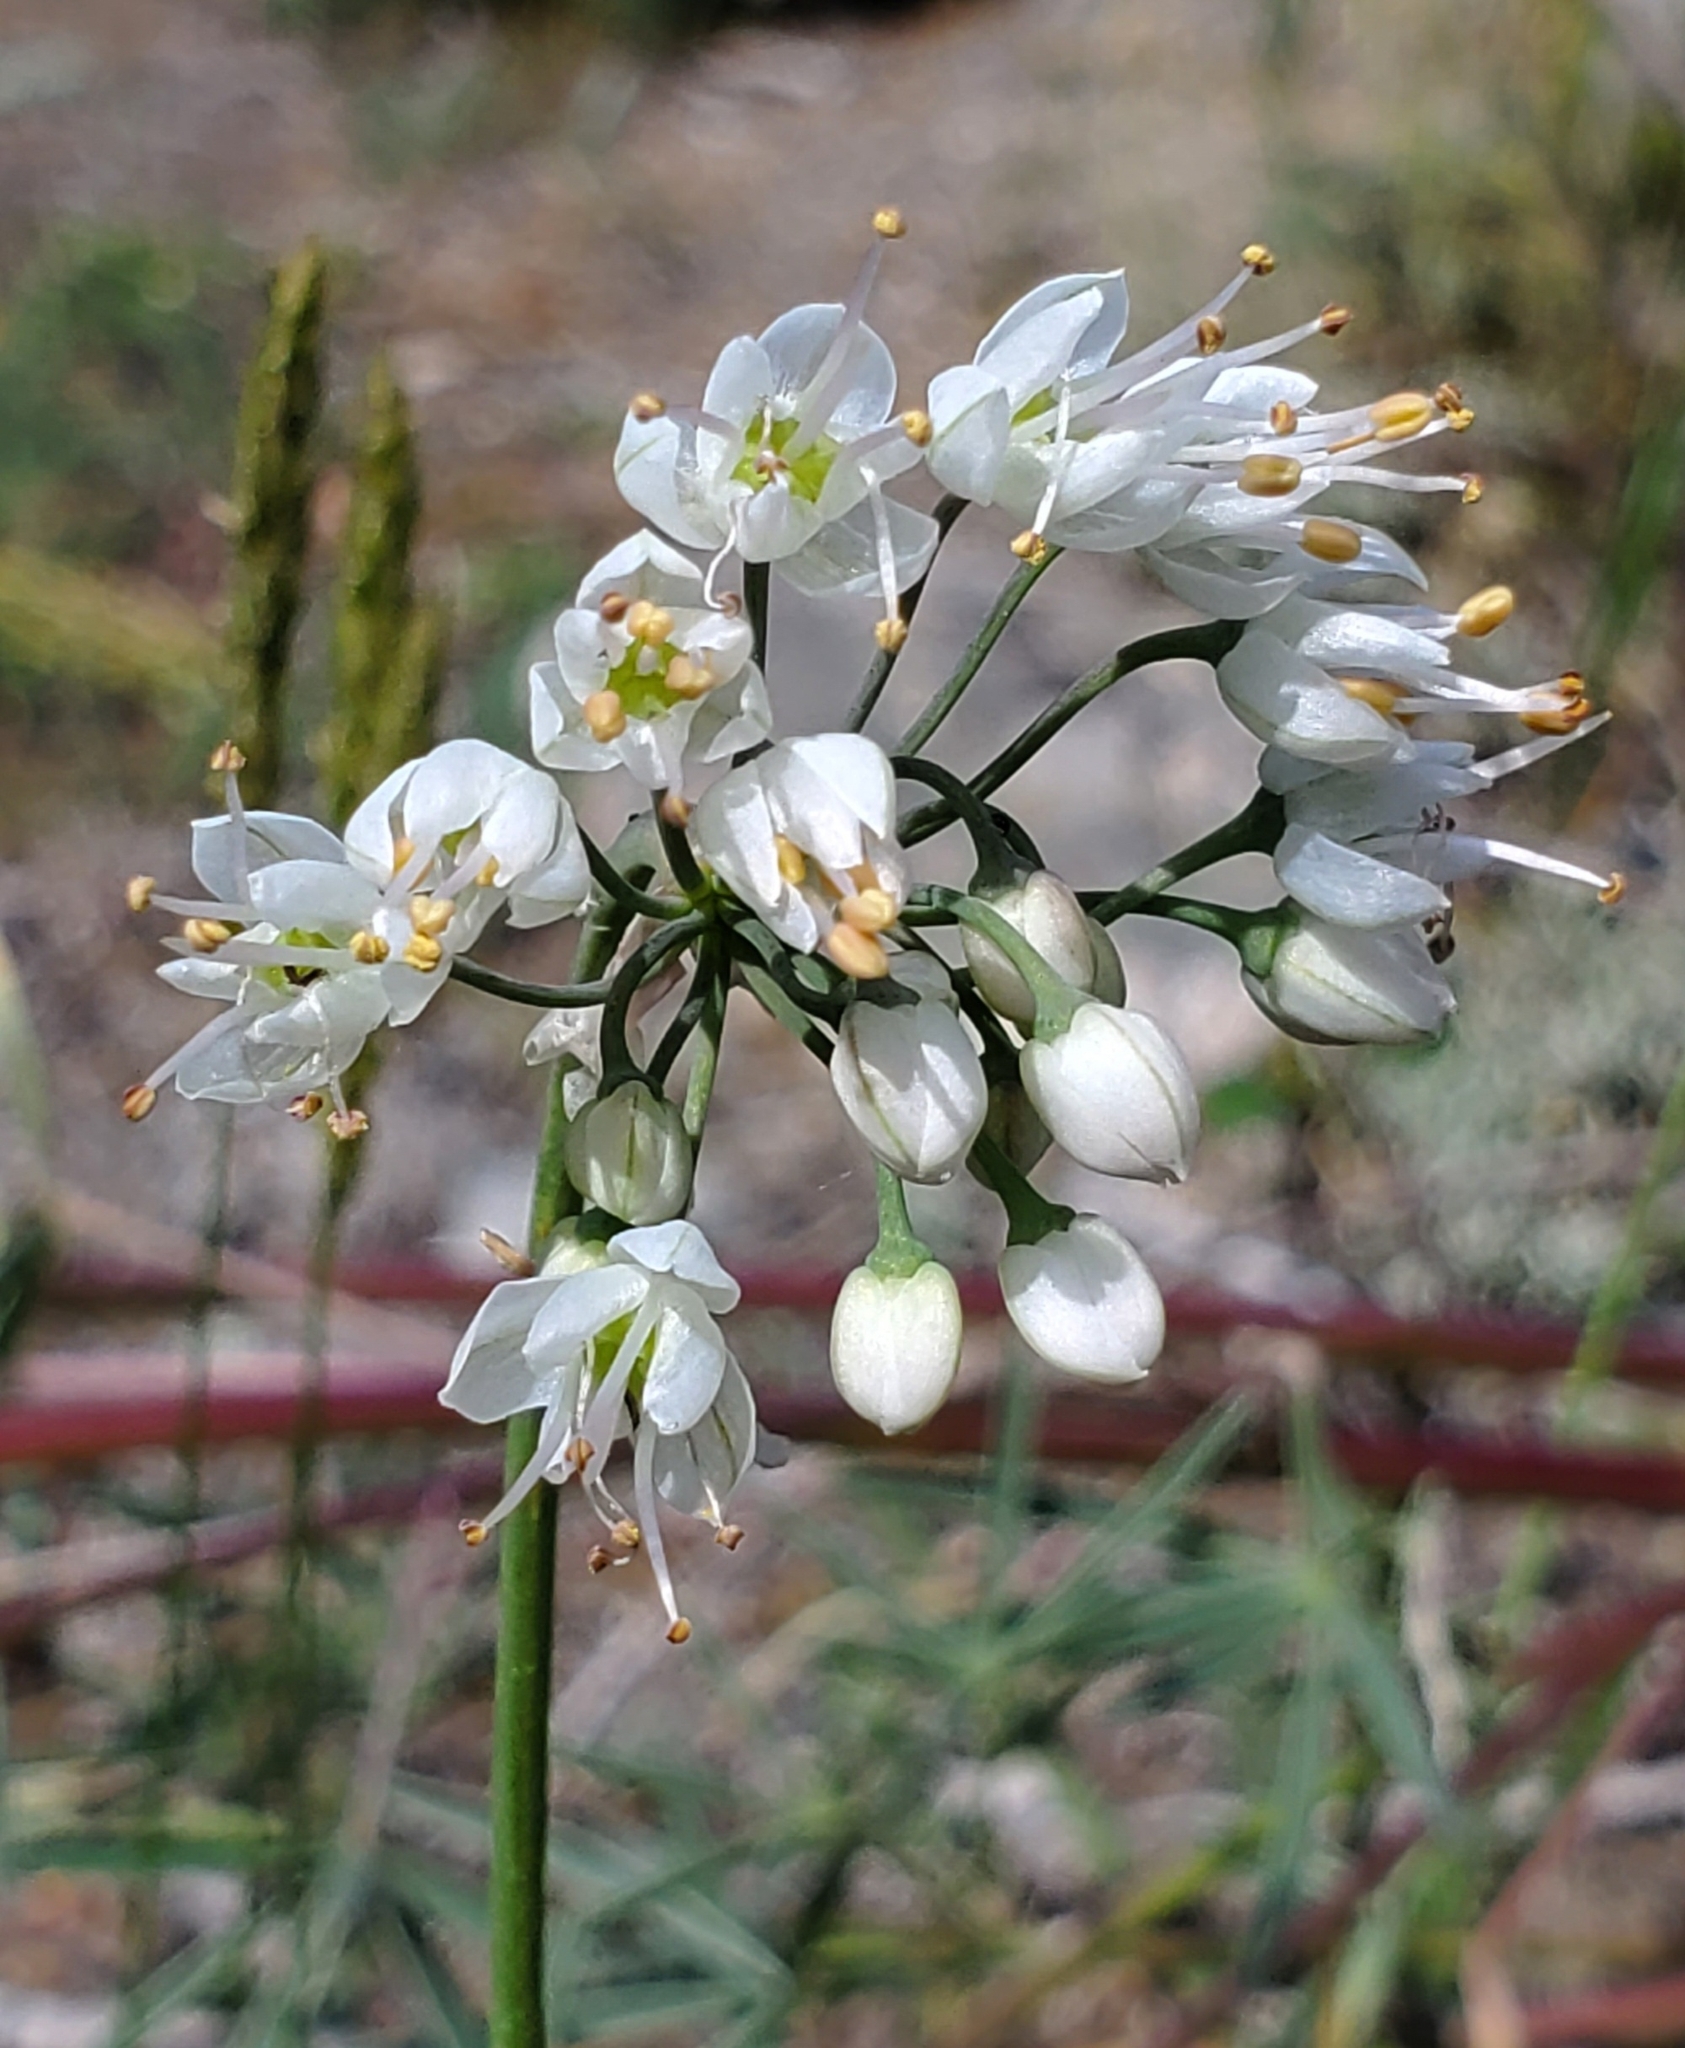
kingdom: Plantae
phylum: Tracheophyta
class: Liliopsida
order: Asparagales
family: Amaryllidaceae
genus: Allium
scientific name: Allium cernuum
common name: Nodding onion
